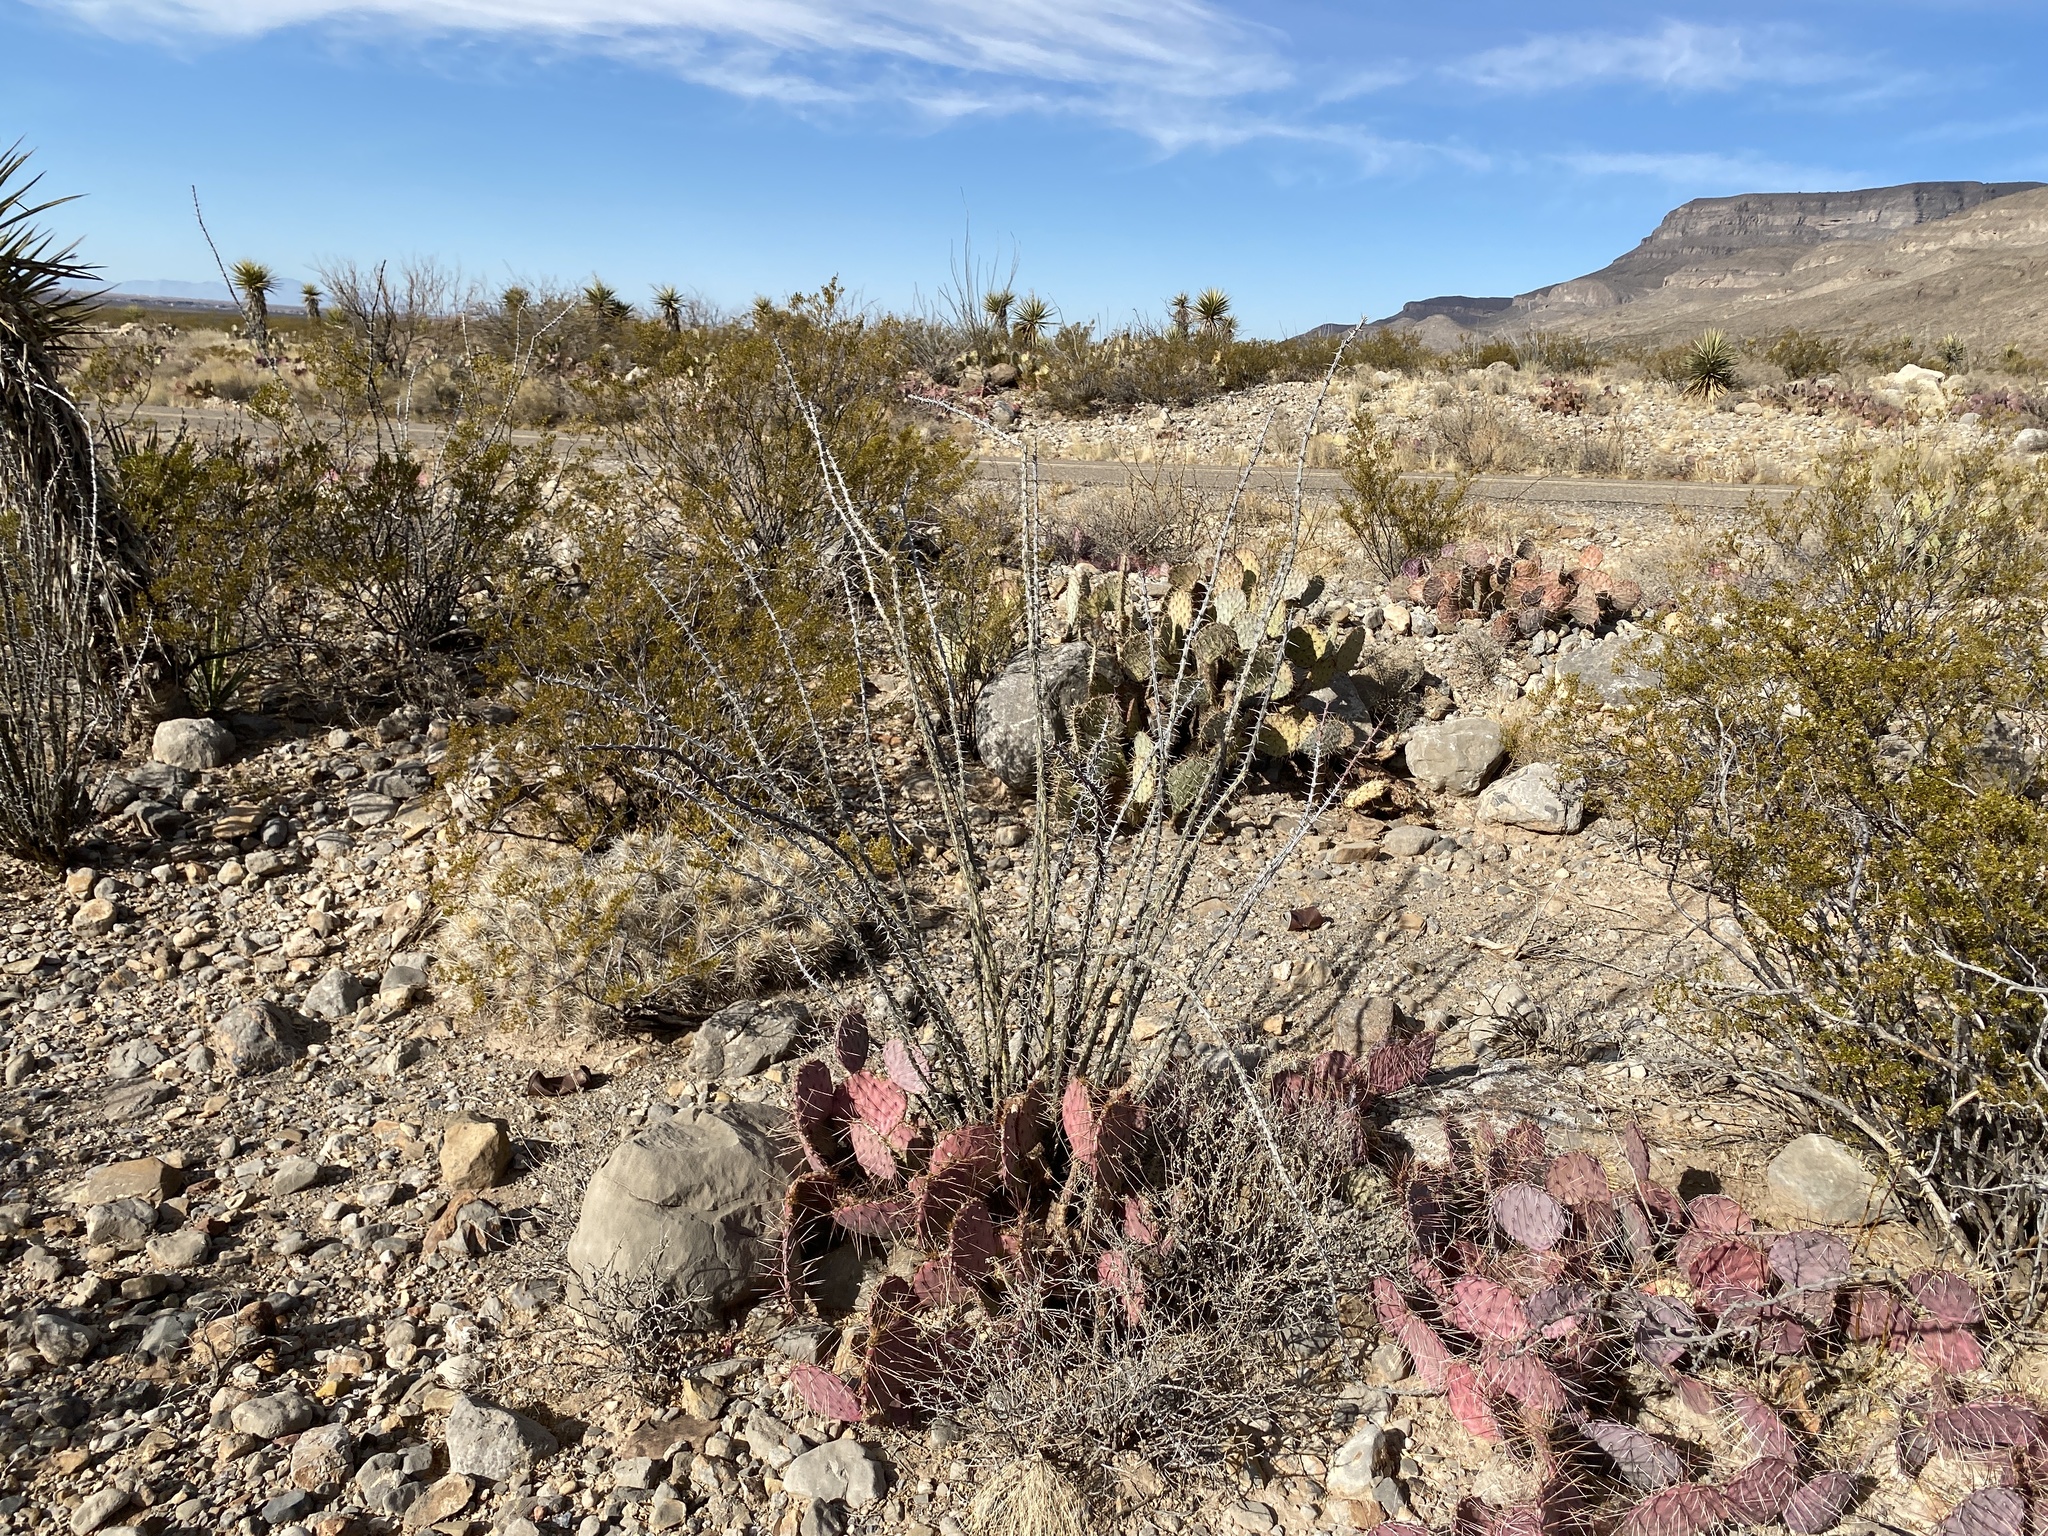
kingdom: Plantae
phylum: Tracheophyta
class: Magnoliopsida
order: Ericales
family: Fouquieriaceae
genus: Fouquieria
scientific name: Fouquieria splendens
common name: Vine-cactus
